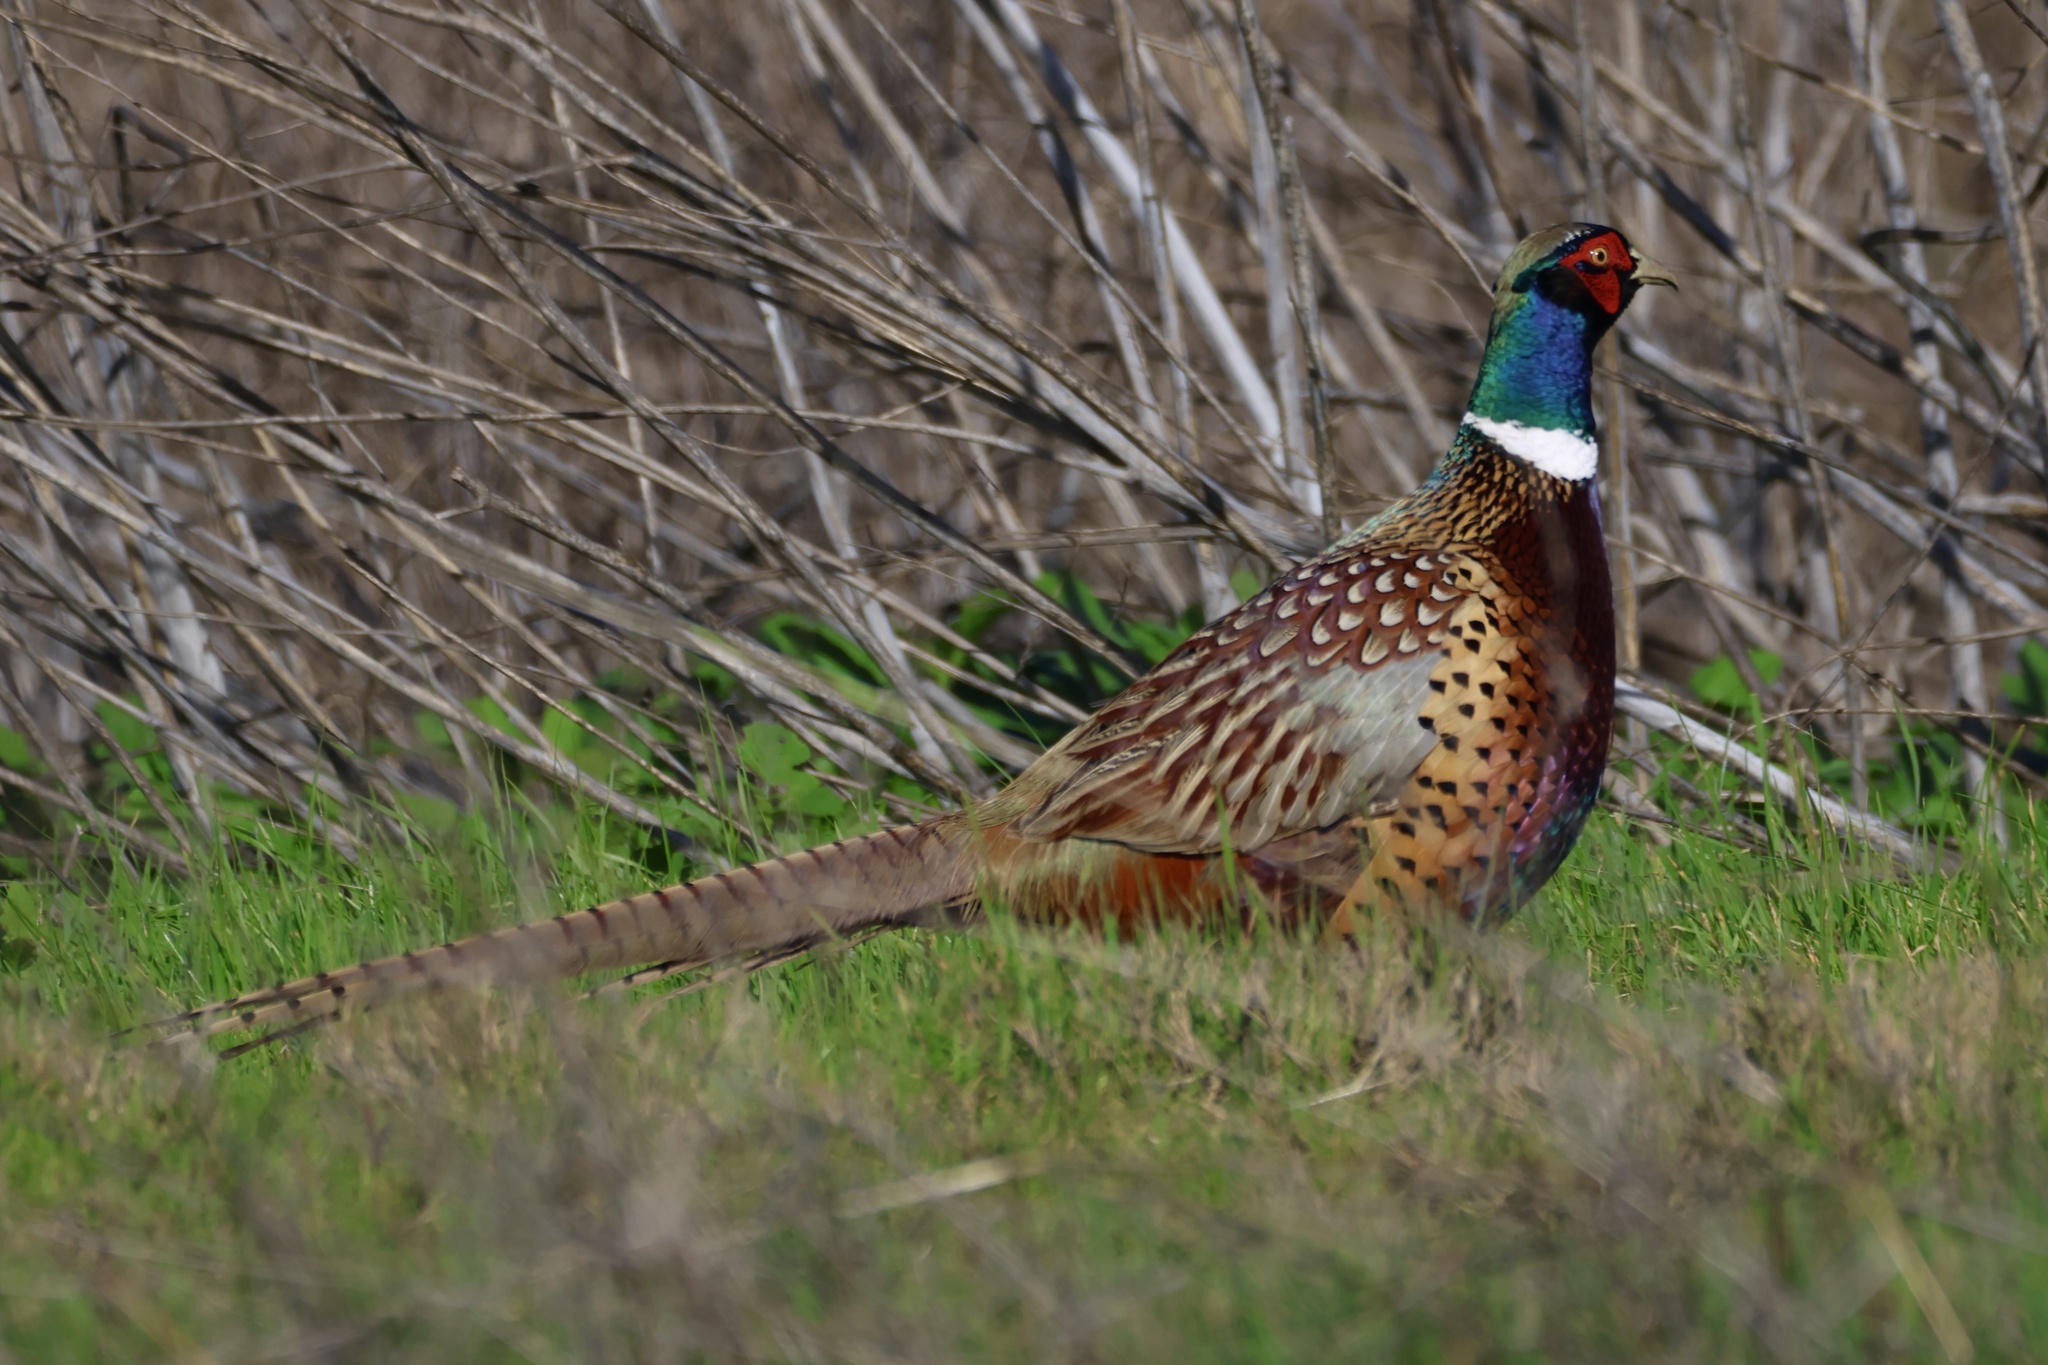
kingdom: Animalia
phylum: Chordata
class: Aves
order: Galliformes
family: Phasianidae
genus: Phasianus
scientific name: Phasianus colchicus
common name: Common pheasant
